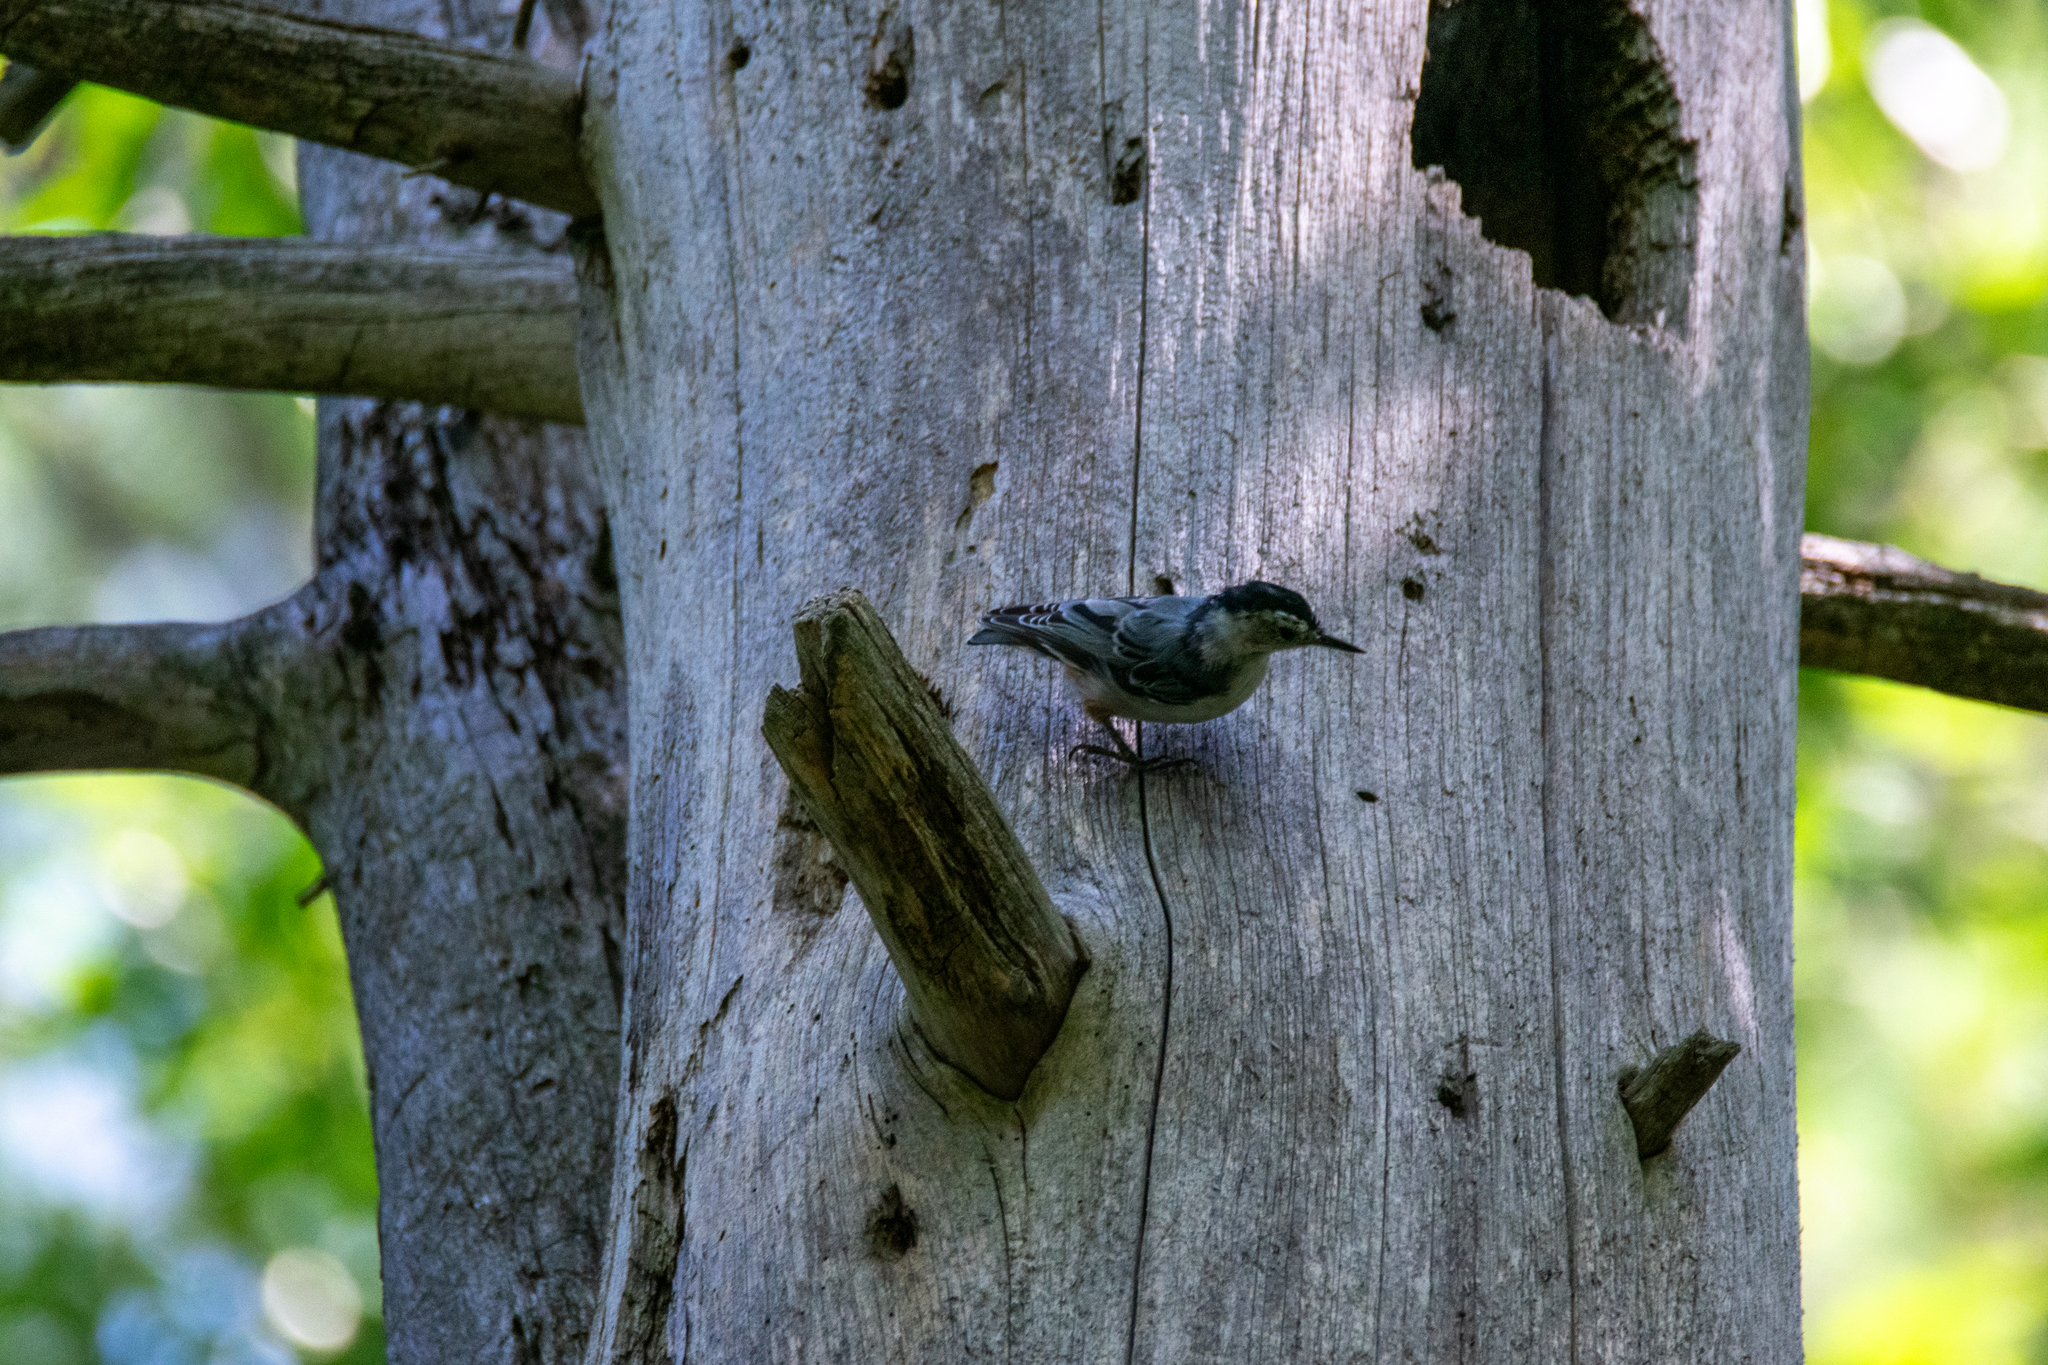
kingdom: Animalia
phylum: Chordata
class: Aves
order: Passeriformes
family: Sittidae
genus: Sitta
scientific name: Sitta carolinensis
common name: White-breasted nuthatch
